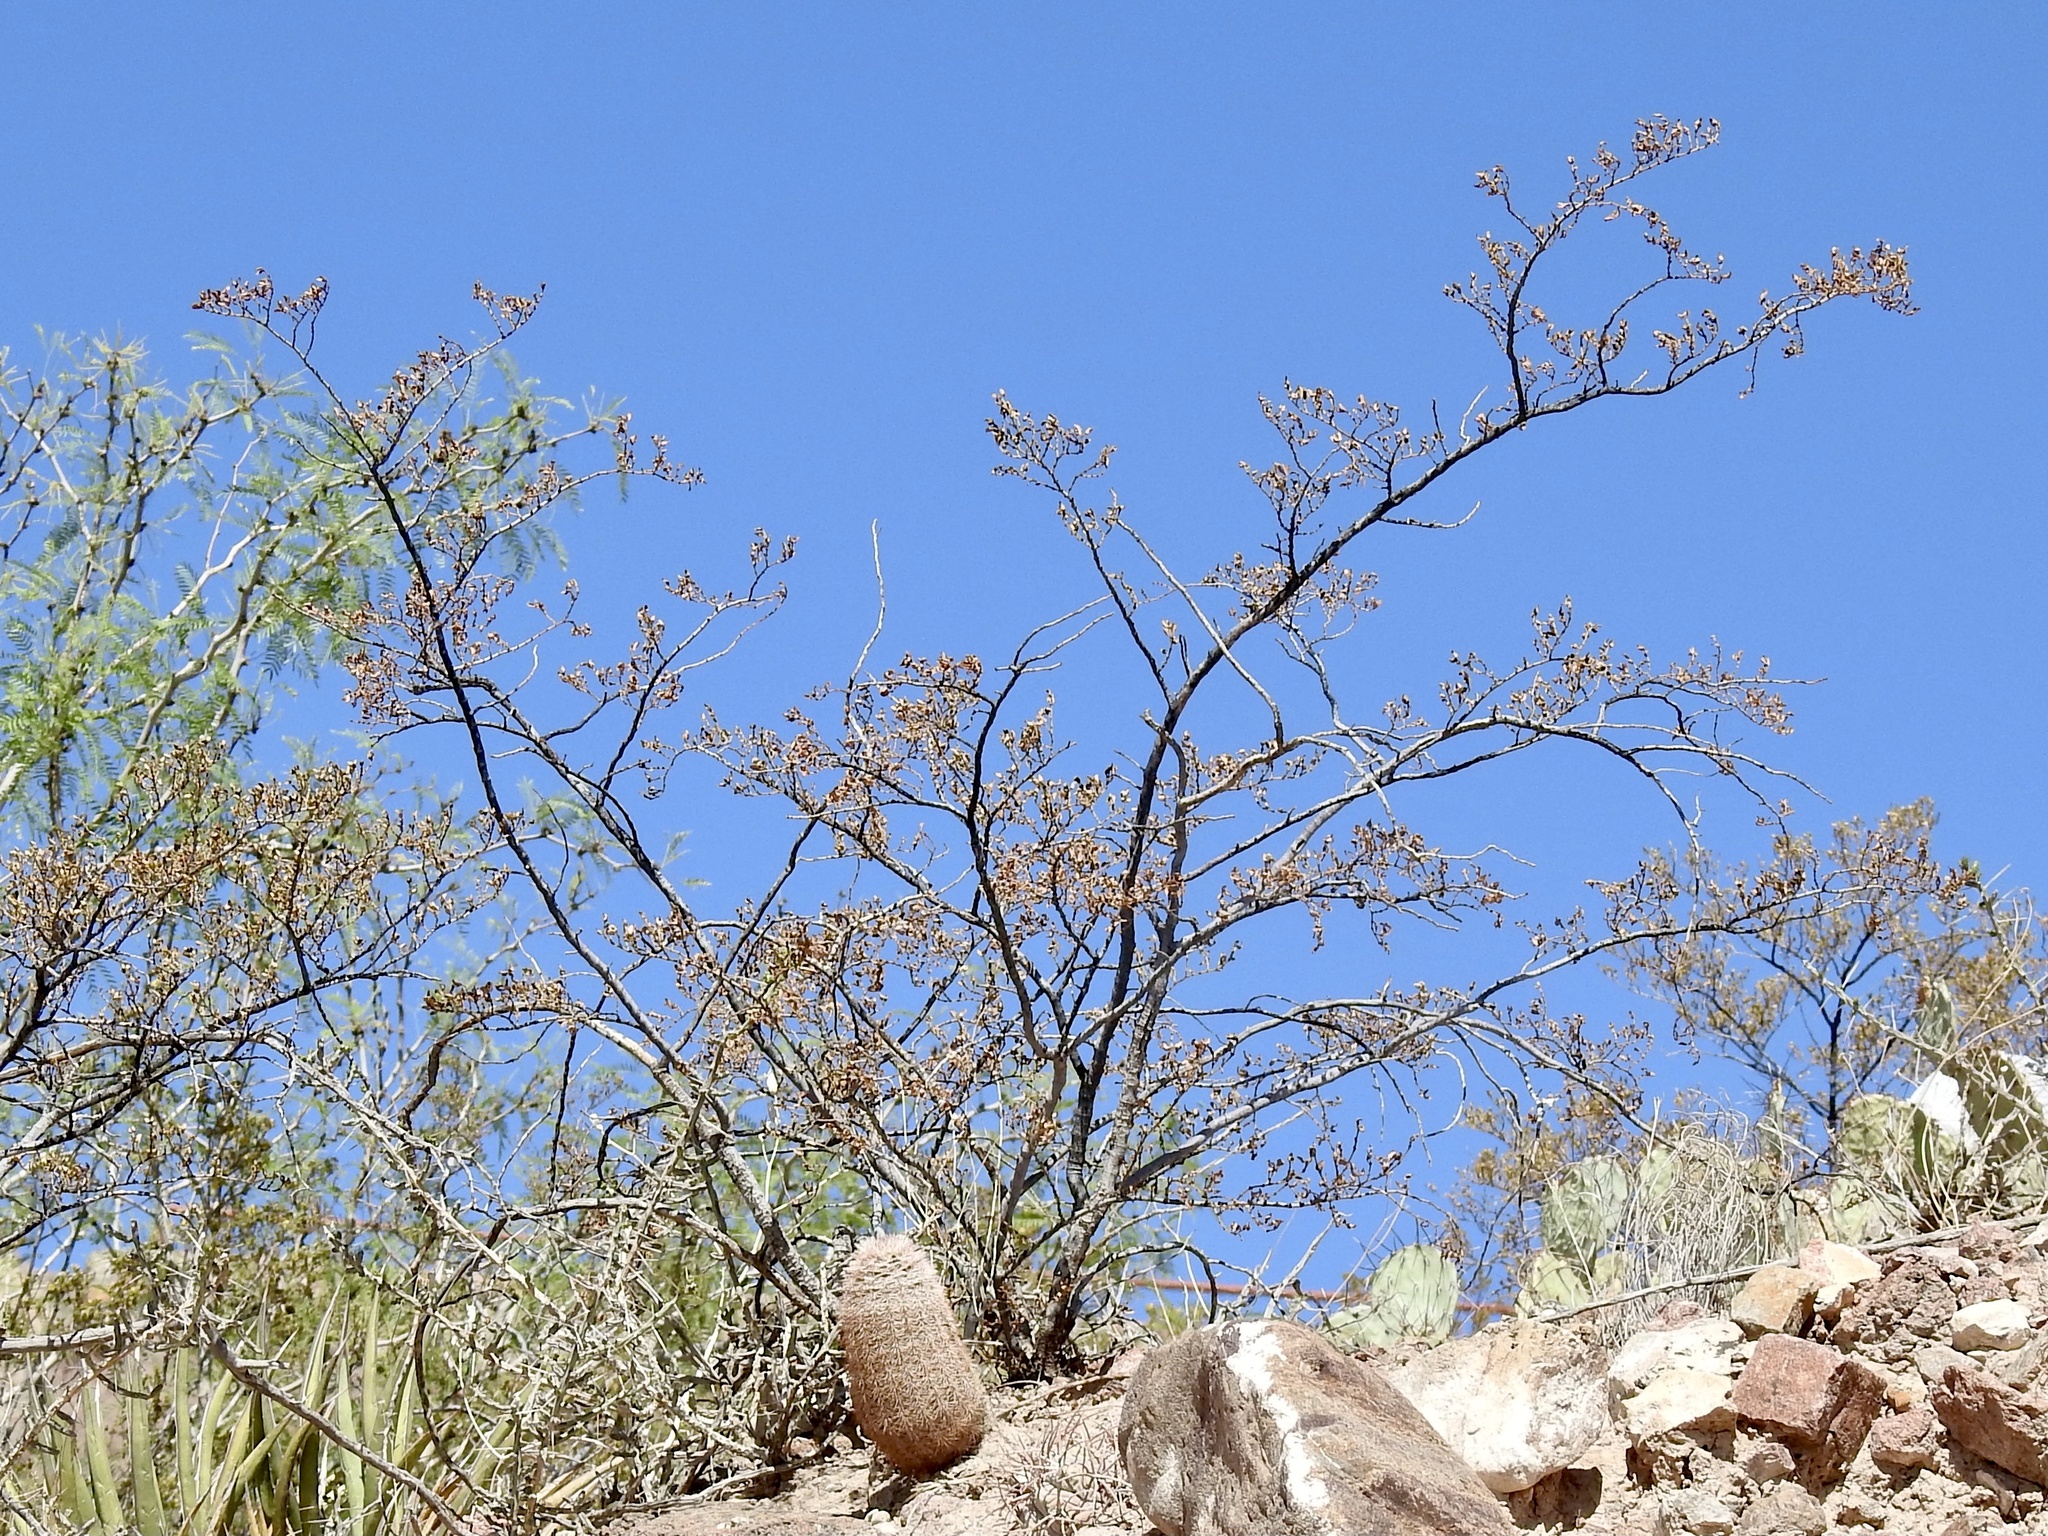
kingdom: Plantae
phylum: Tracheophyta
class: Magnoliopsida
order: Zygophyllales
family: Zygophyllaceae
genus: Larrea
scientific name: Larrea tridentata
